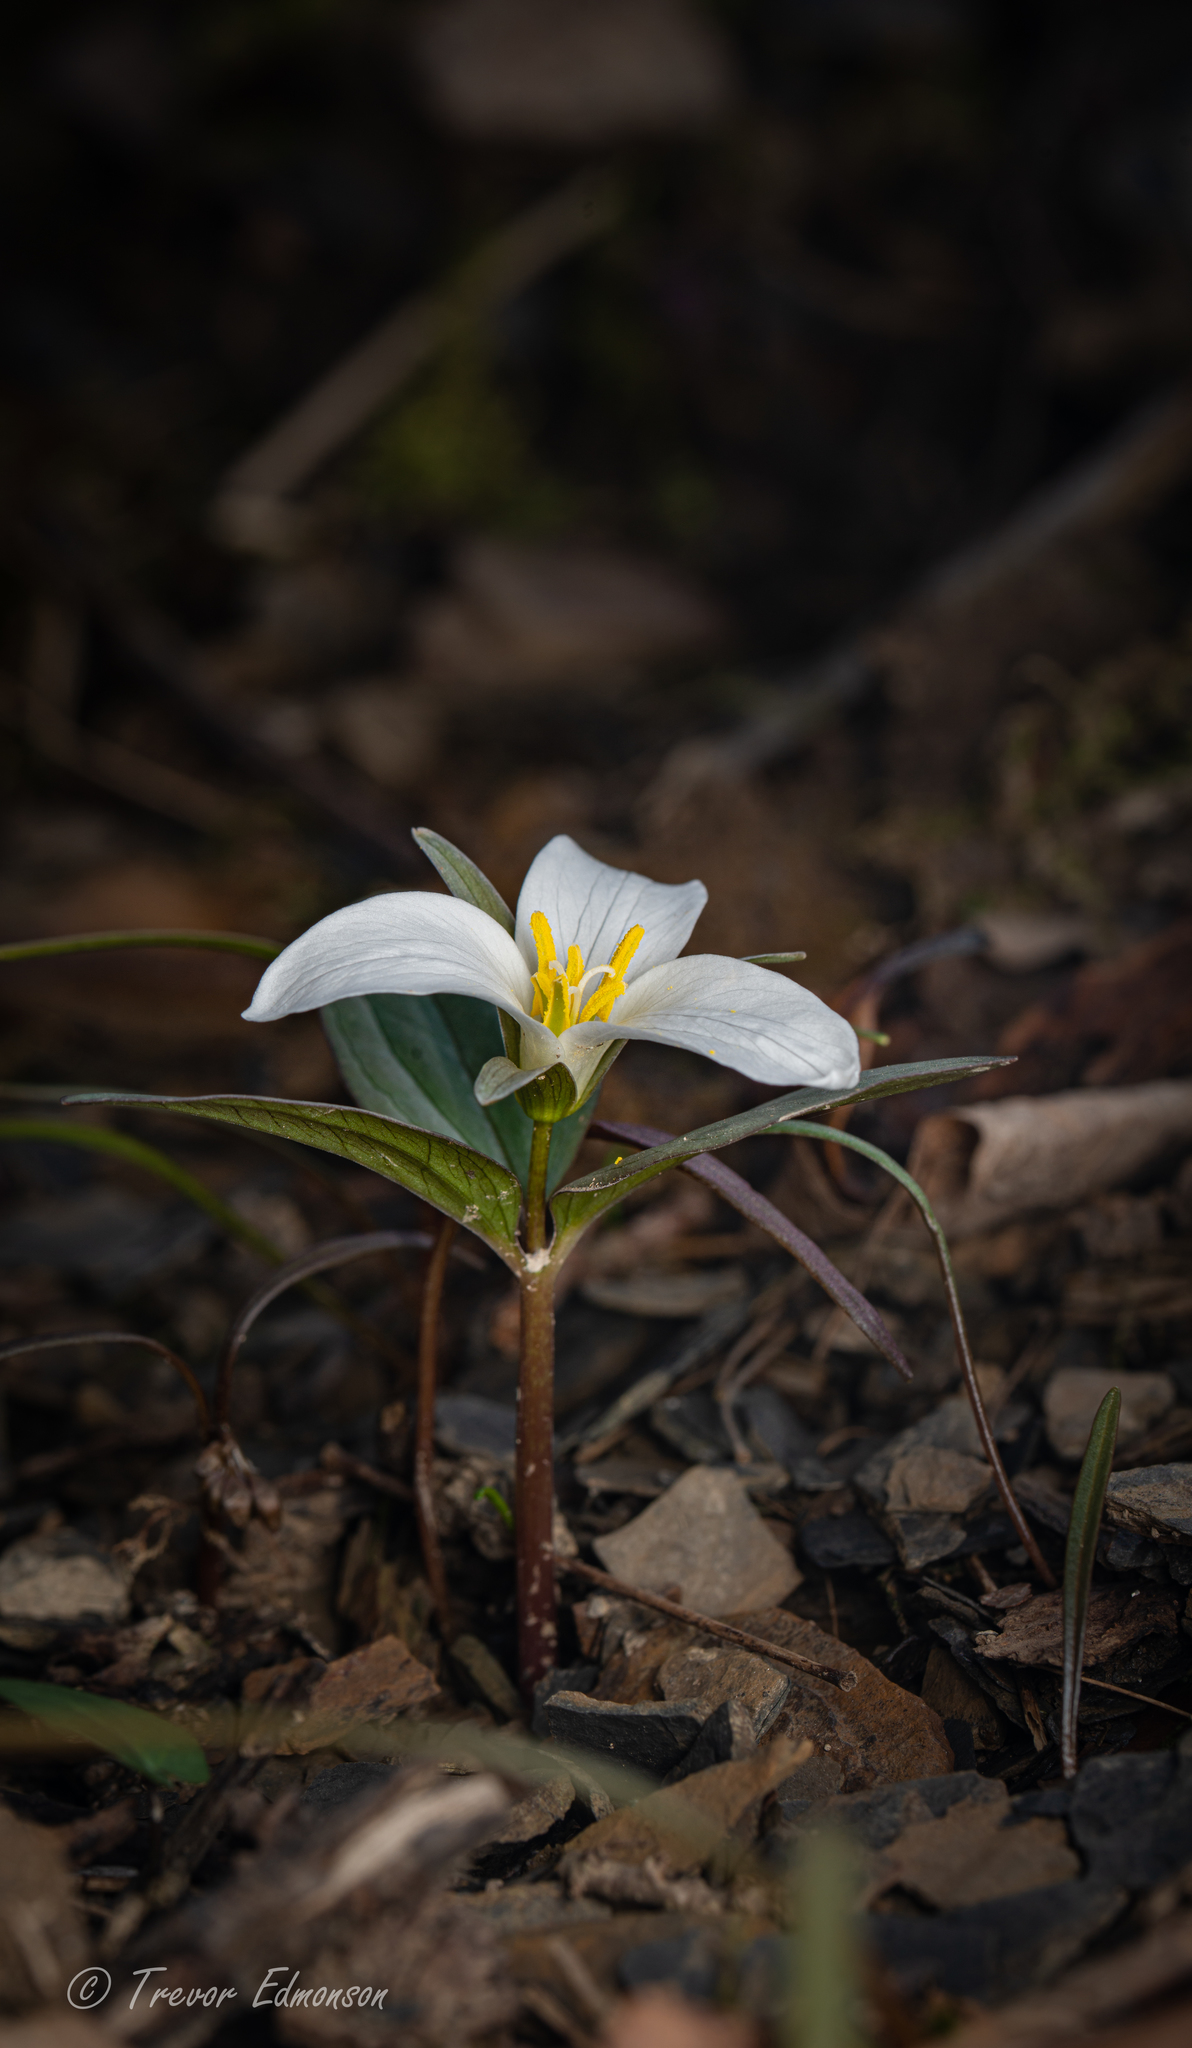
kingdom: Plantae
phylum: Tracheophyta
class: Liliopsida
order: Liliales
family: Melanthiaceae
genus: Trillium
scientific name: Trillium nivale
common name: Dwarf white trillium
